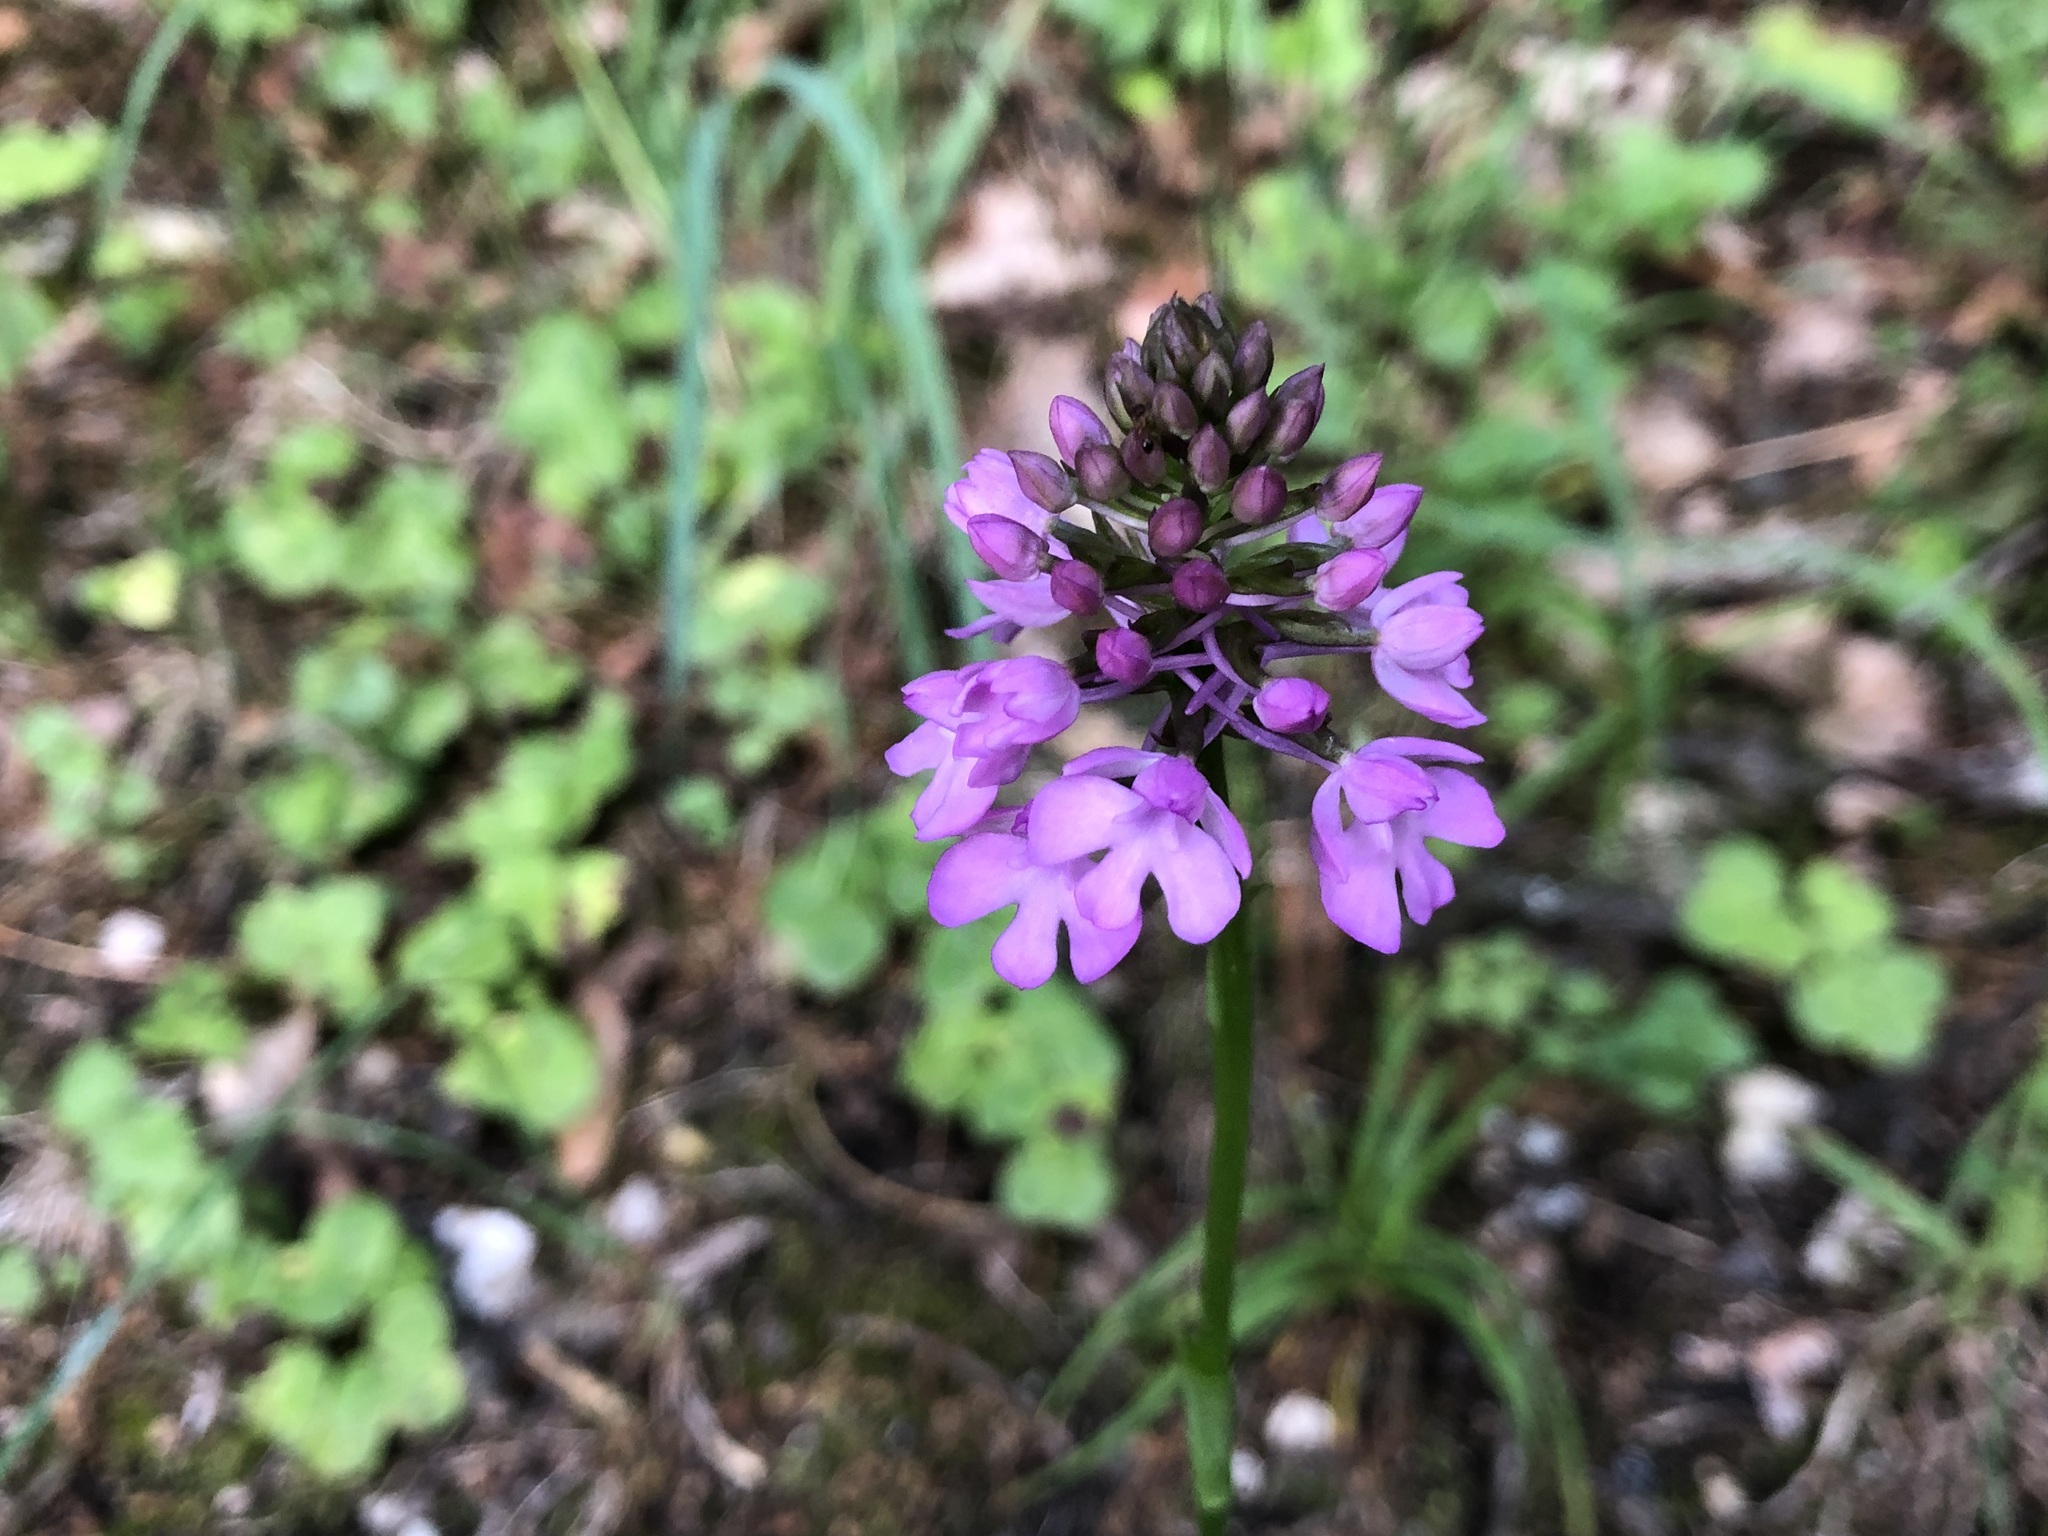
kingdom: Plantae
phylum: Tracheophyta
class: Liliopsida
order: Asparagales
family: Orchidaceae
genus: Anacamptis
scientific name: Anacamptis pyramidalis
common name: Pyramidal orchid
